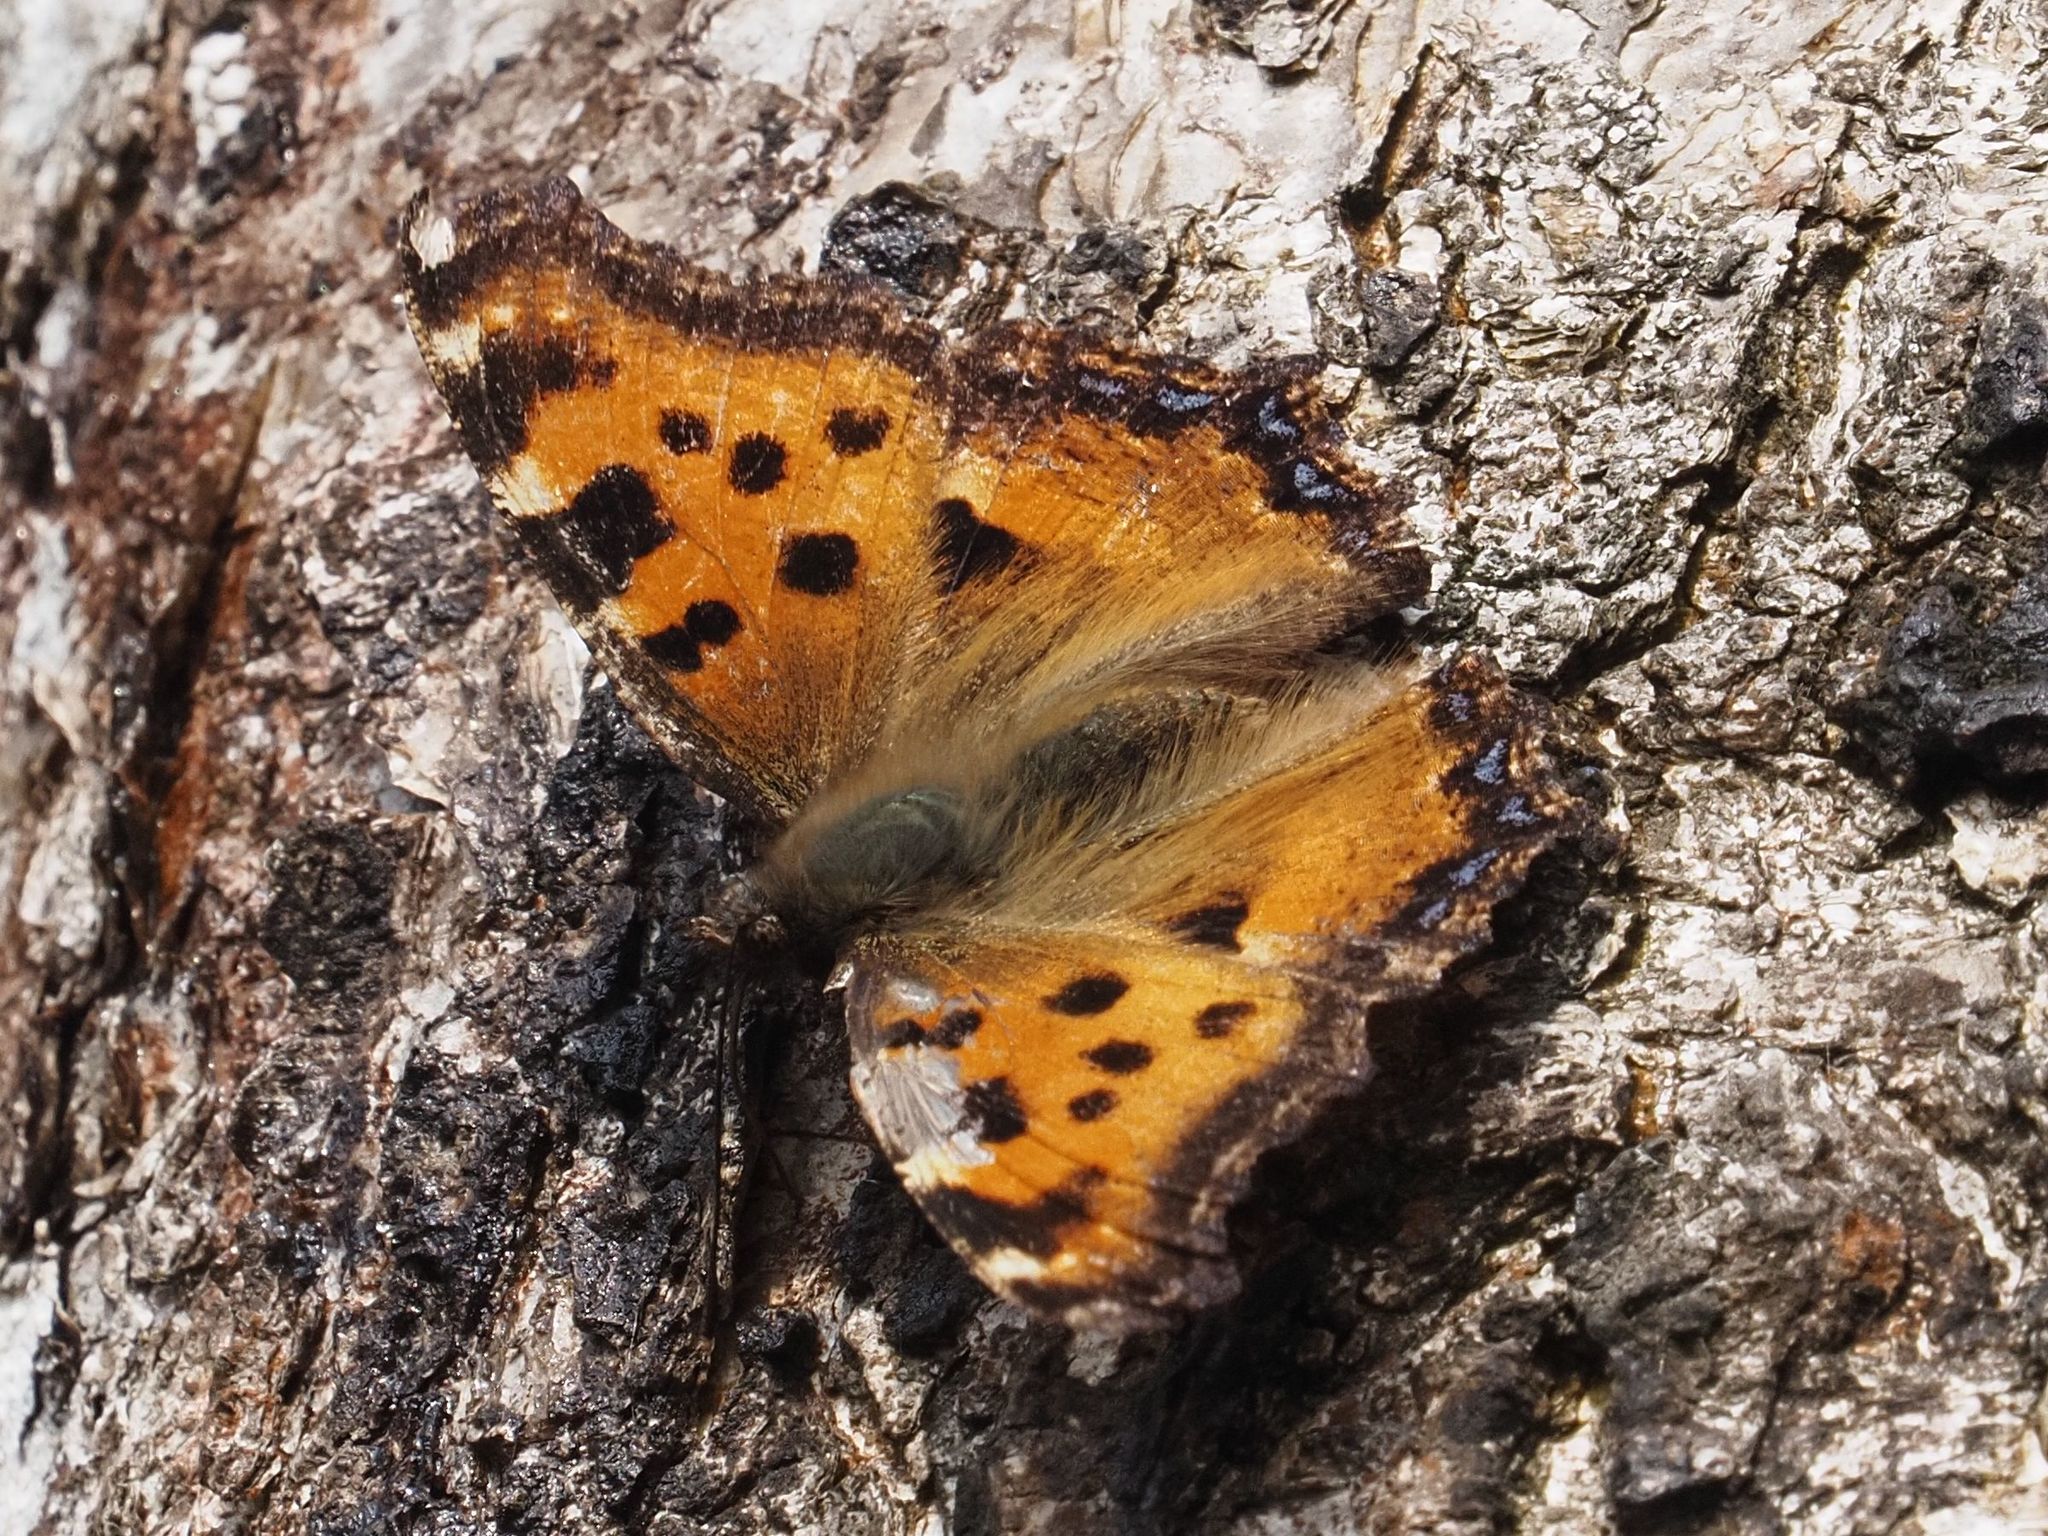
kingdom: Animalia
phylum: Arthropoda
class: Insecta
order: Lepidoptera
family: Nymphalidae
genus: Nymphalis
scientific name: Nymphalis polychloros
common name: Large tortoiseshell
